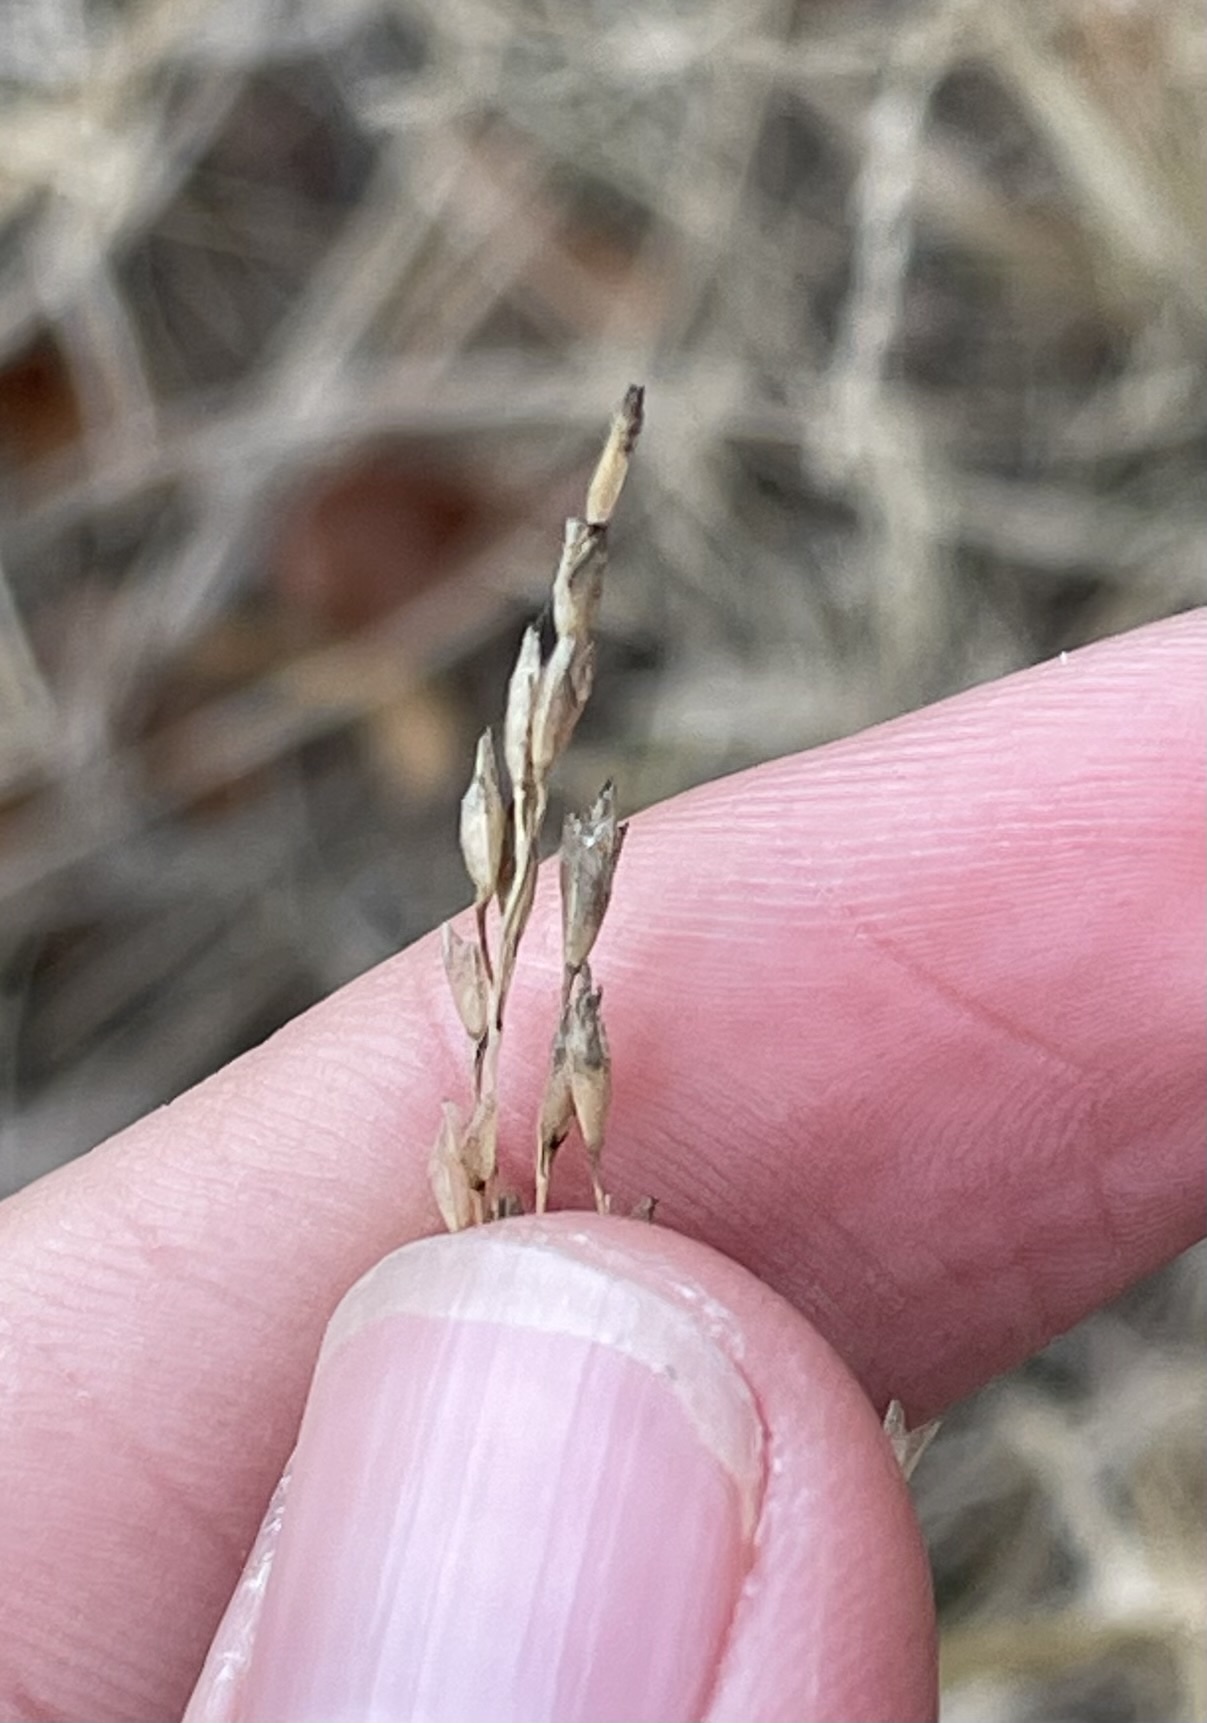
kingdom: Plantae
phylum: Tracheophyta
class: Liliopsida
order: Poales
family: Poaceae
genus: Tridens
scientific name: Tridens flavus
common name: Purpletop
